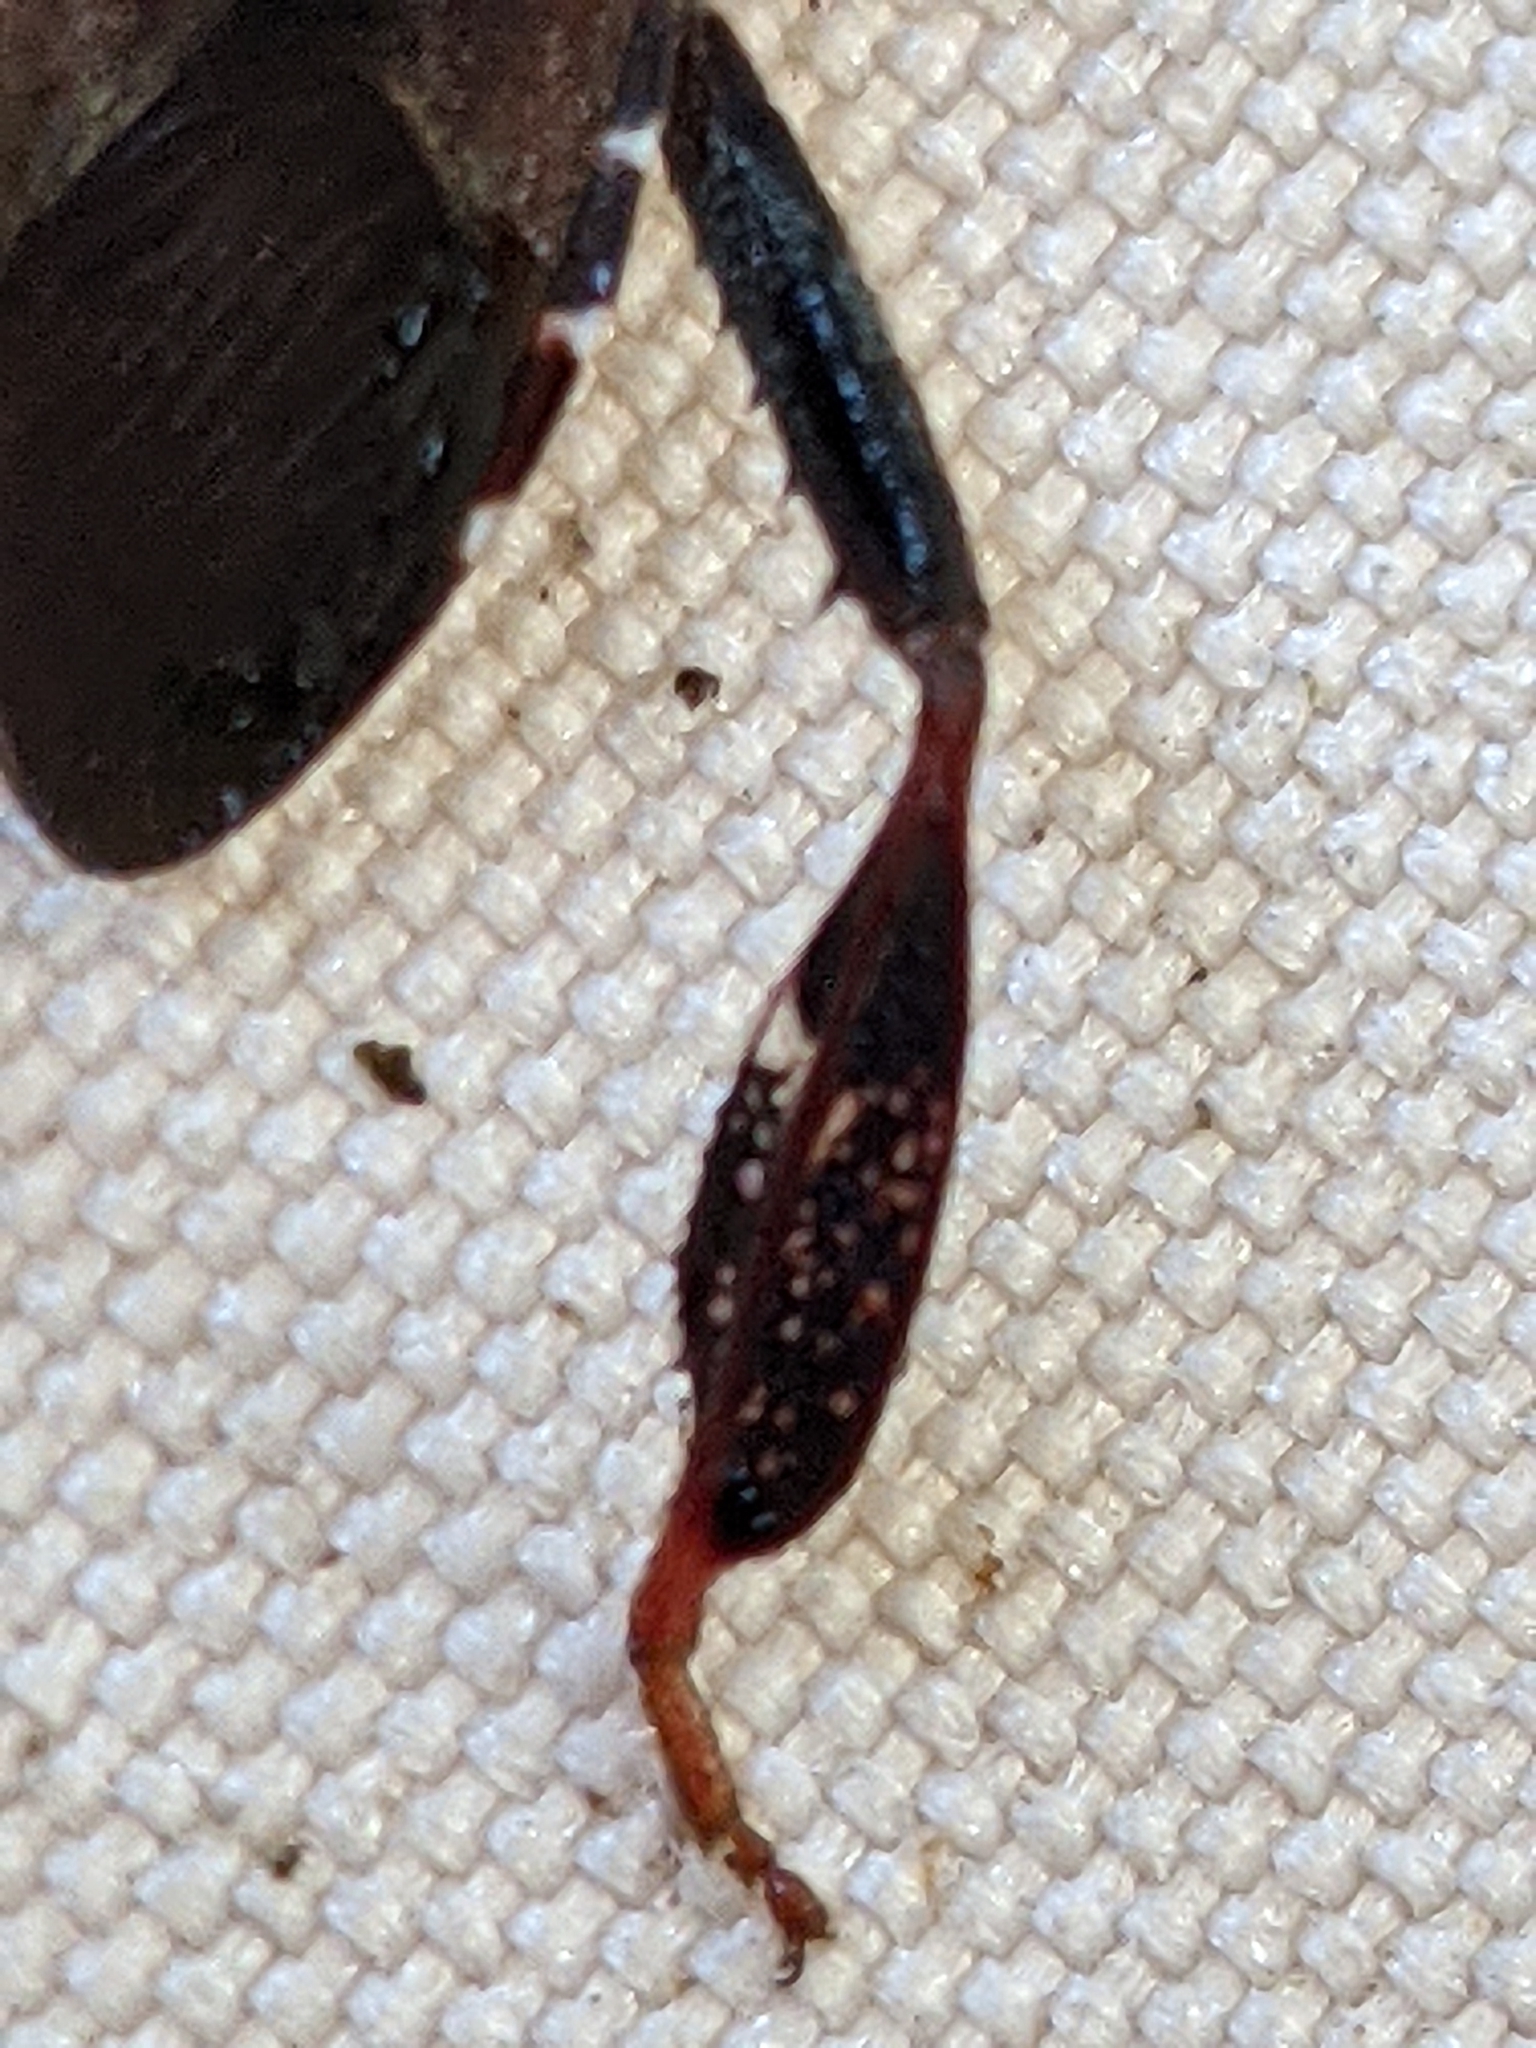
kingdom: Animalia
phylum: Arthropoda
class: Insecta
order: Hemiptera
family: Coreidae
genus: Leptoglossus
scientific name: Leptoglossus corculus
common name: Southern pine seed bug
